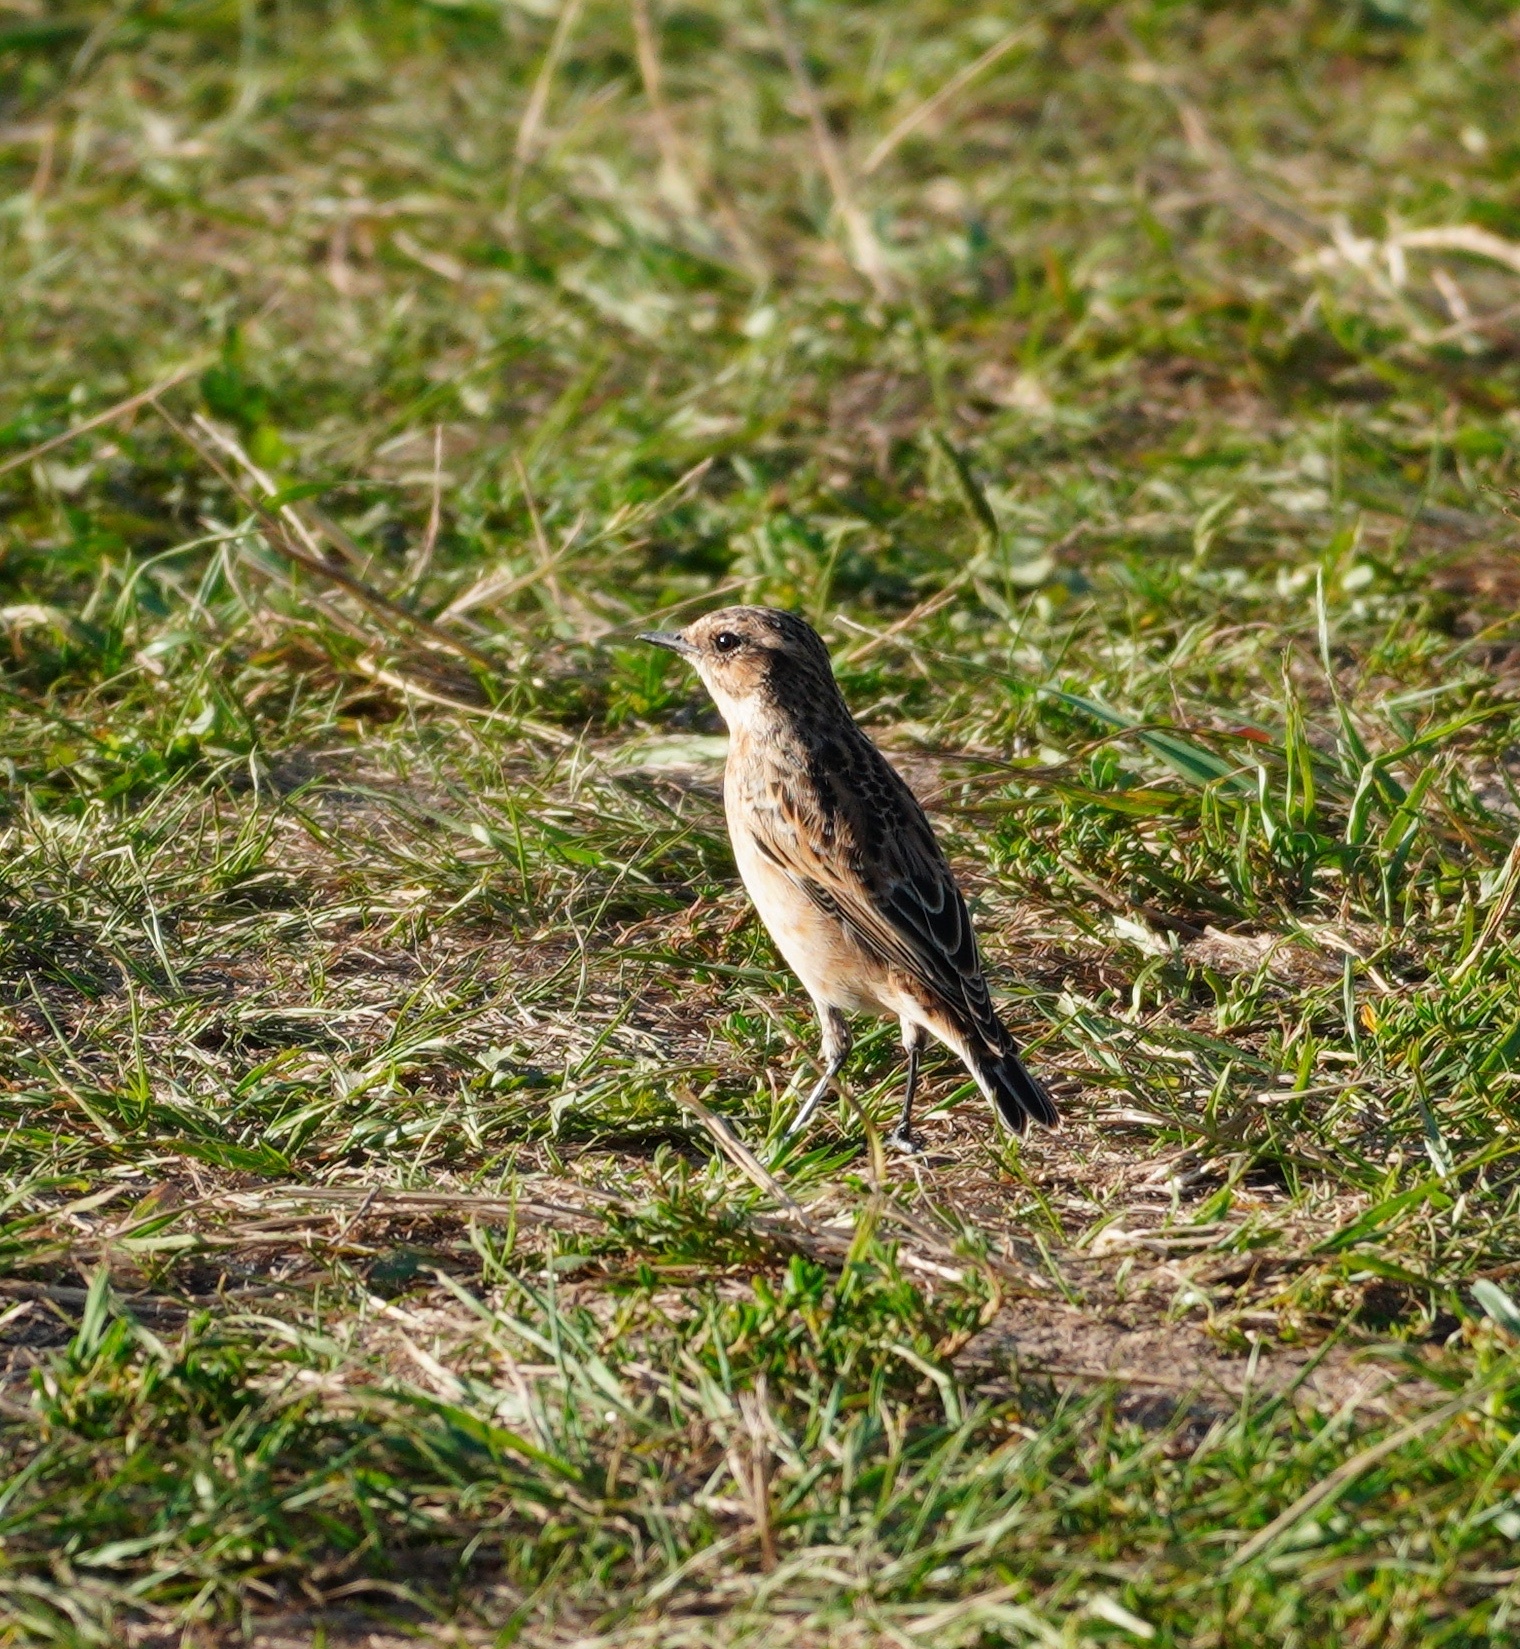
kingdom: Animalia
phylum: Chordata
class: Aves
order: Passeriformes
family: Muscicapidae
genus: Saxicola
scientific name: Saxicola rubetra
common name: Whinchat
